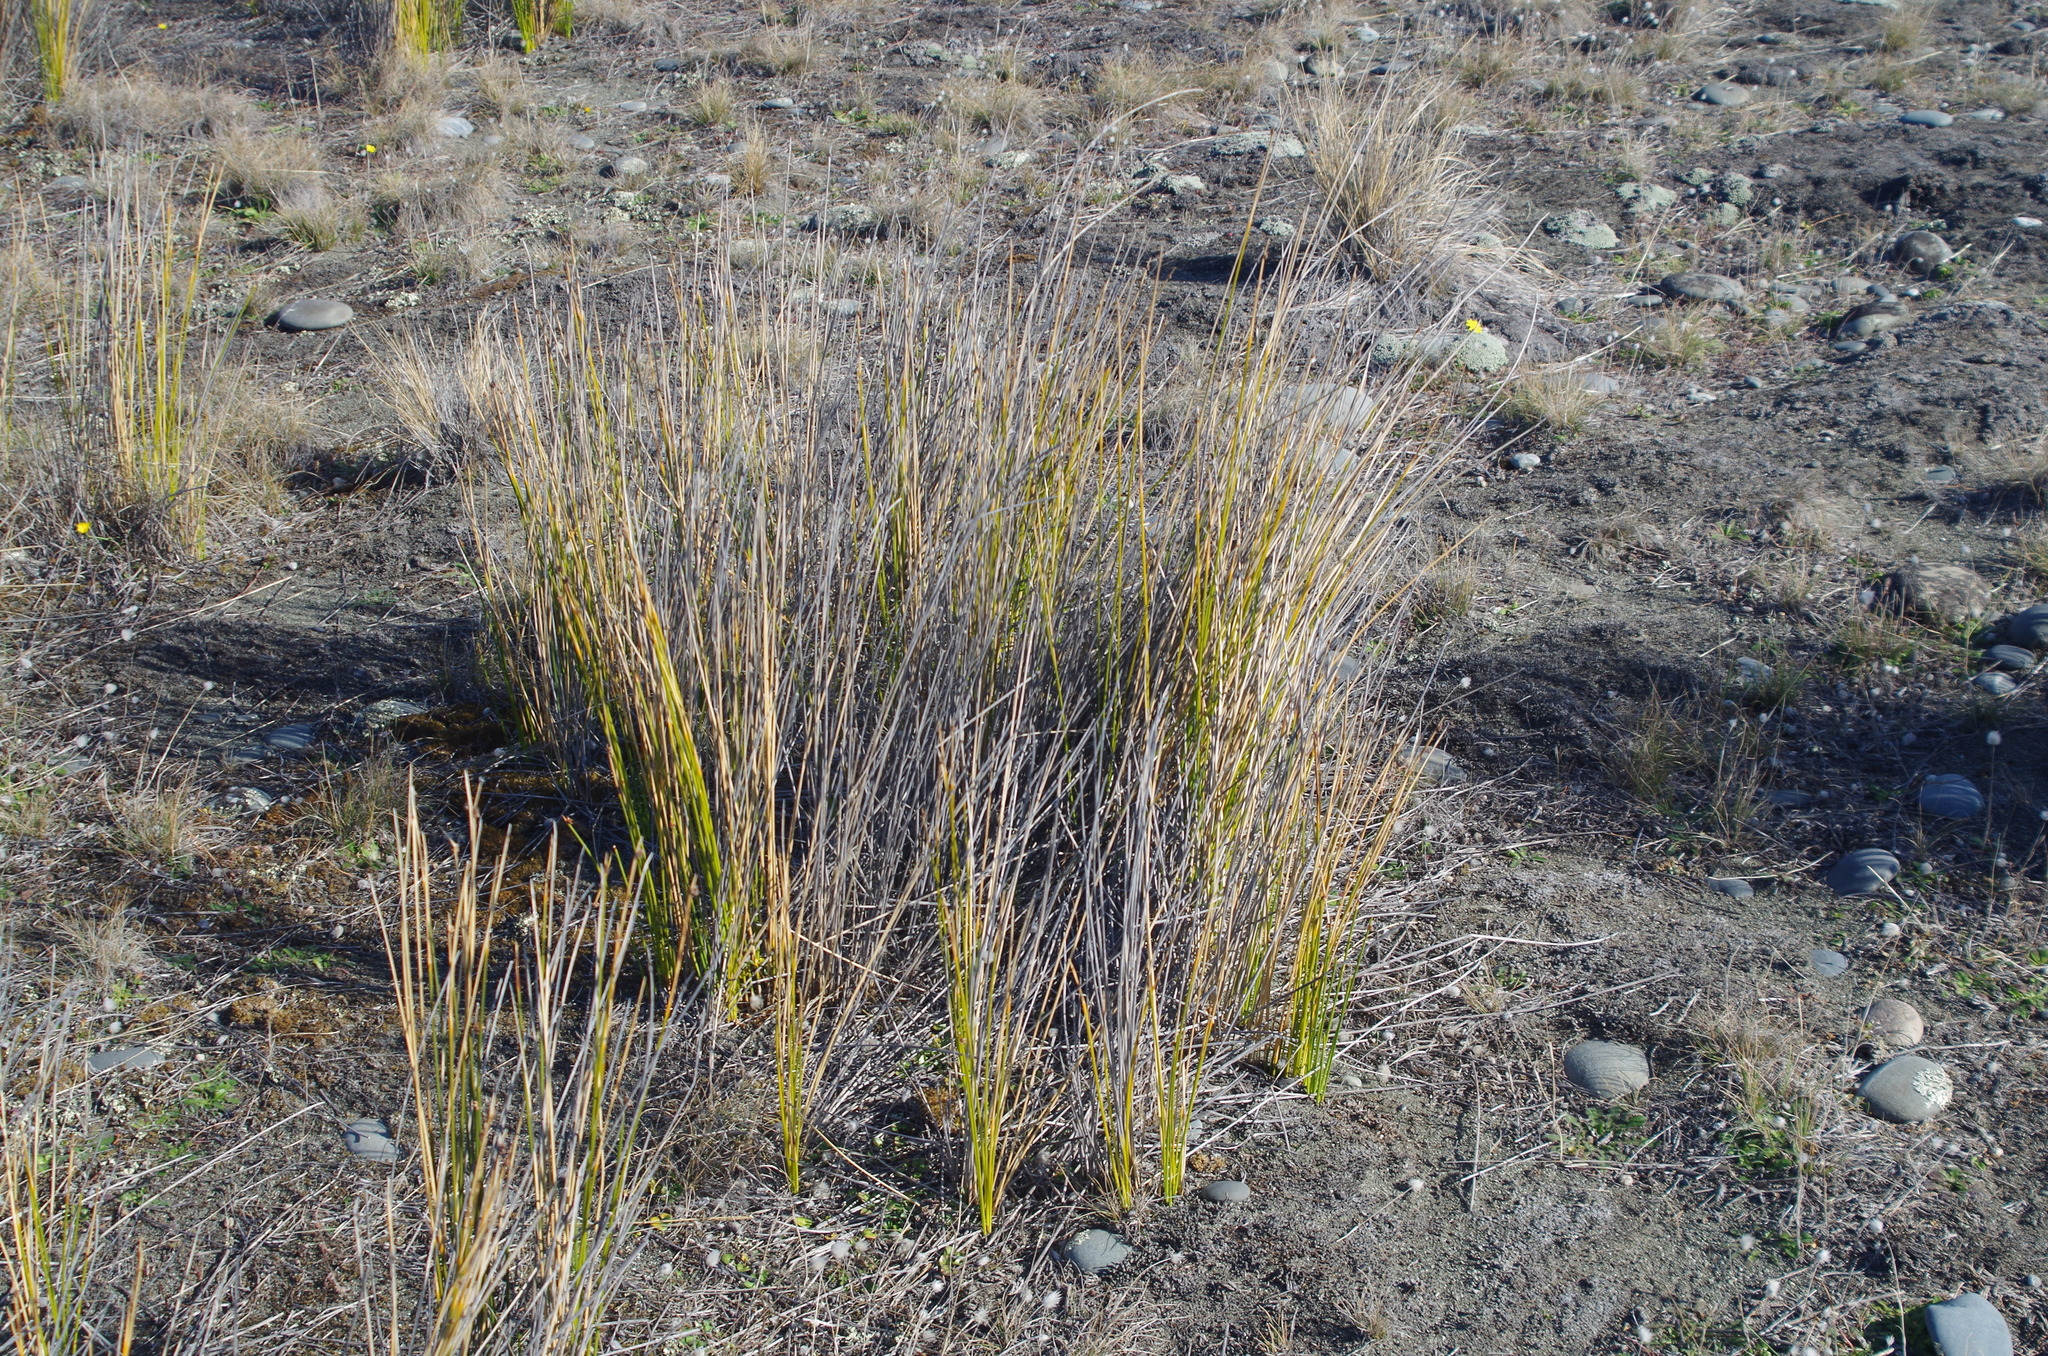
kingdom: Plantae
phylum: Tracheophyta
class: Liliopsida
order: Poales
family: Cyperaceae
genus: Ficinia
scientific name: Ficinia nodosa
